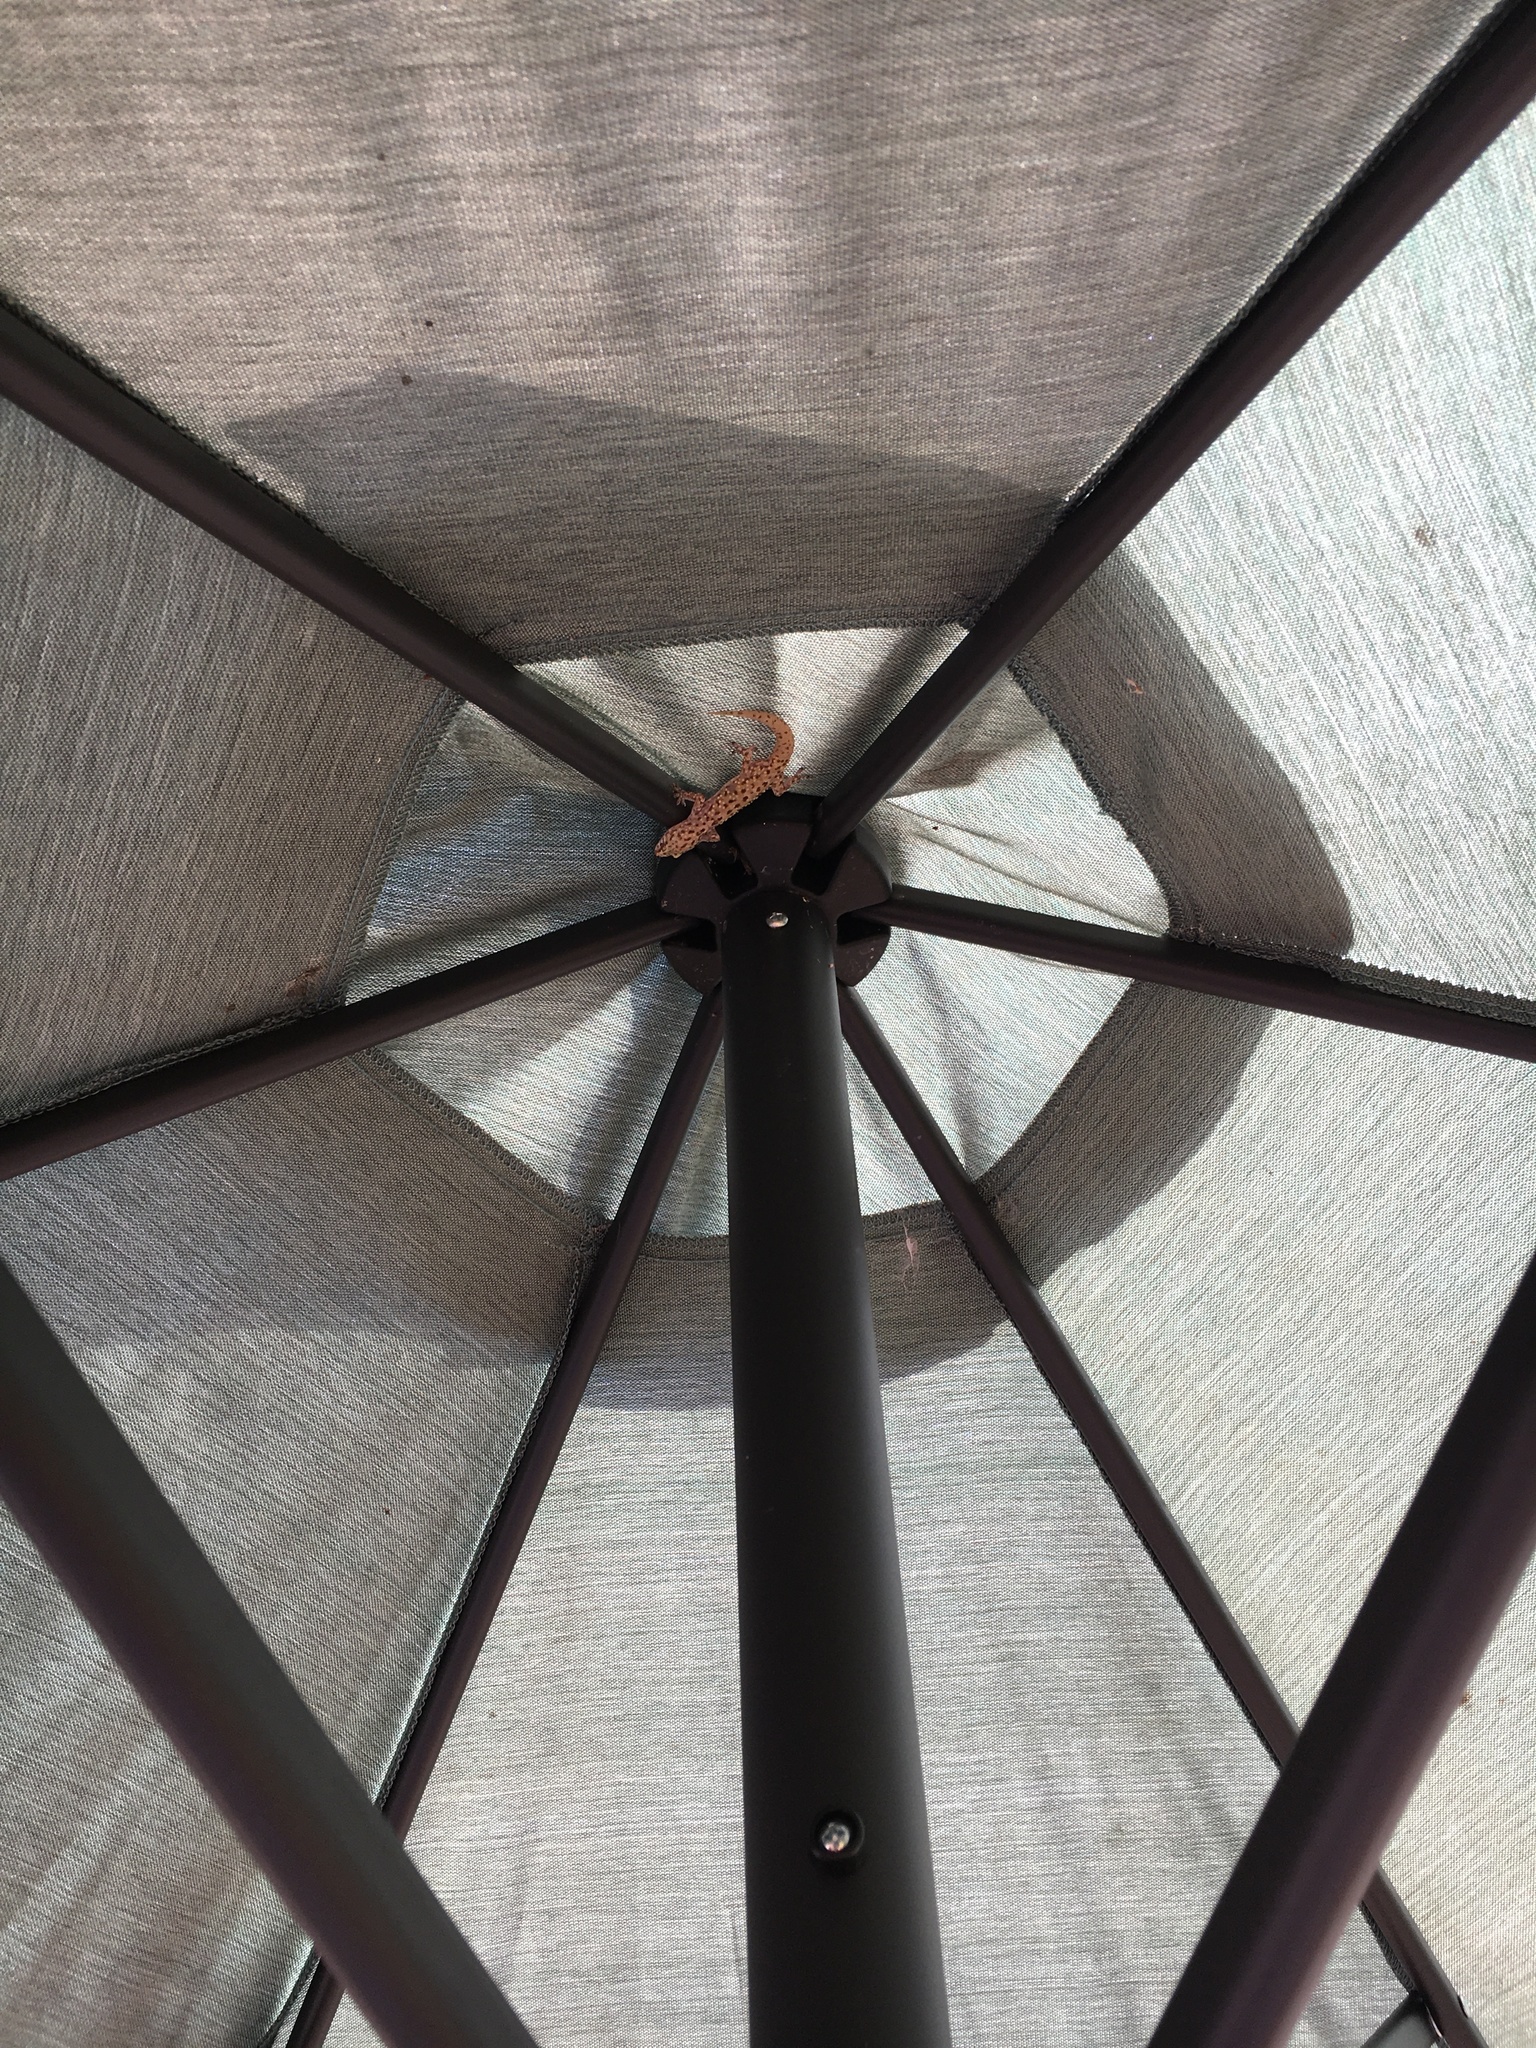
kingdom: Animalia
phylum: Chordata
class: Squamata
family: Gekkonidae
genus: Hemidactylus
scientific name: Hemidactylus turcicus
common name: Turkish gecko
